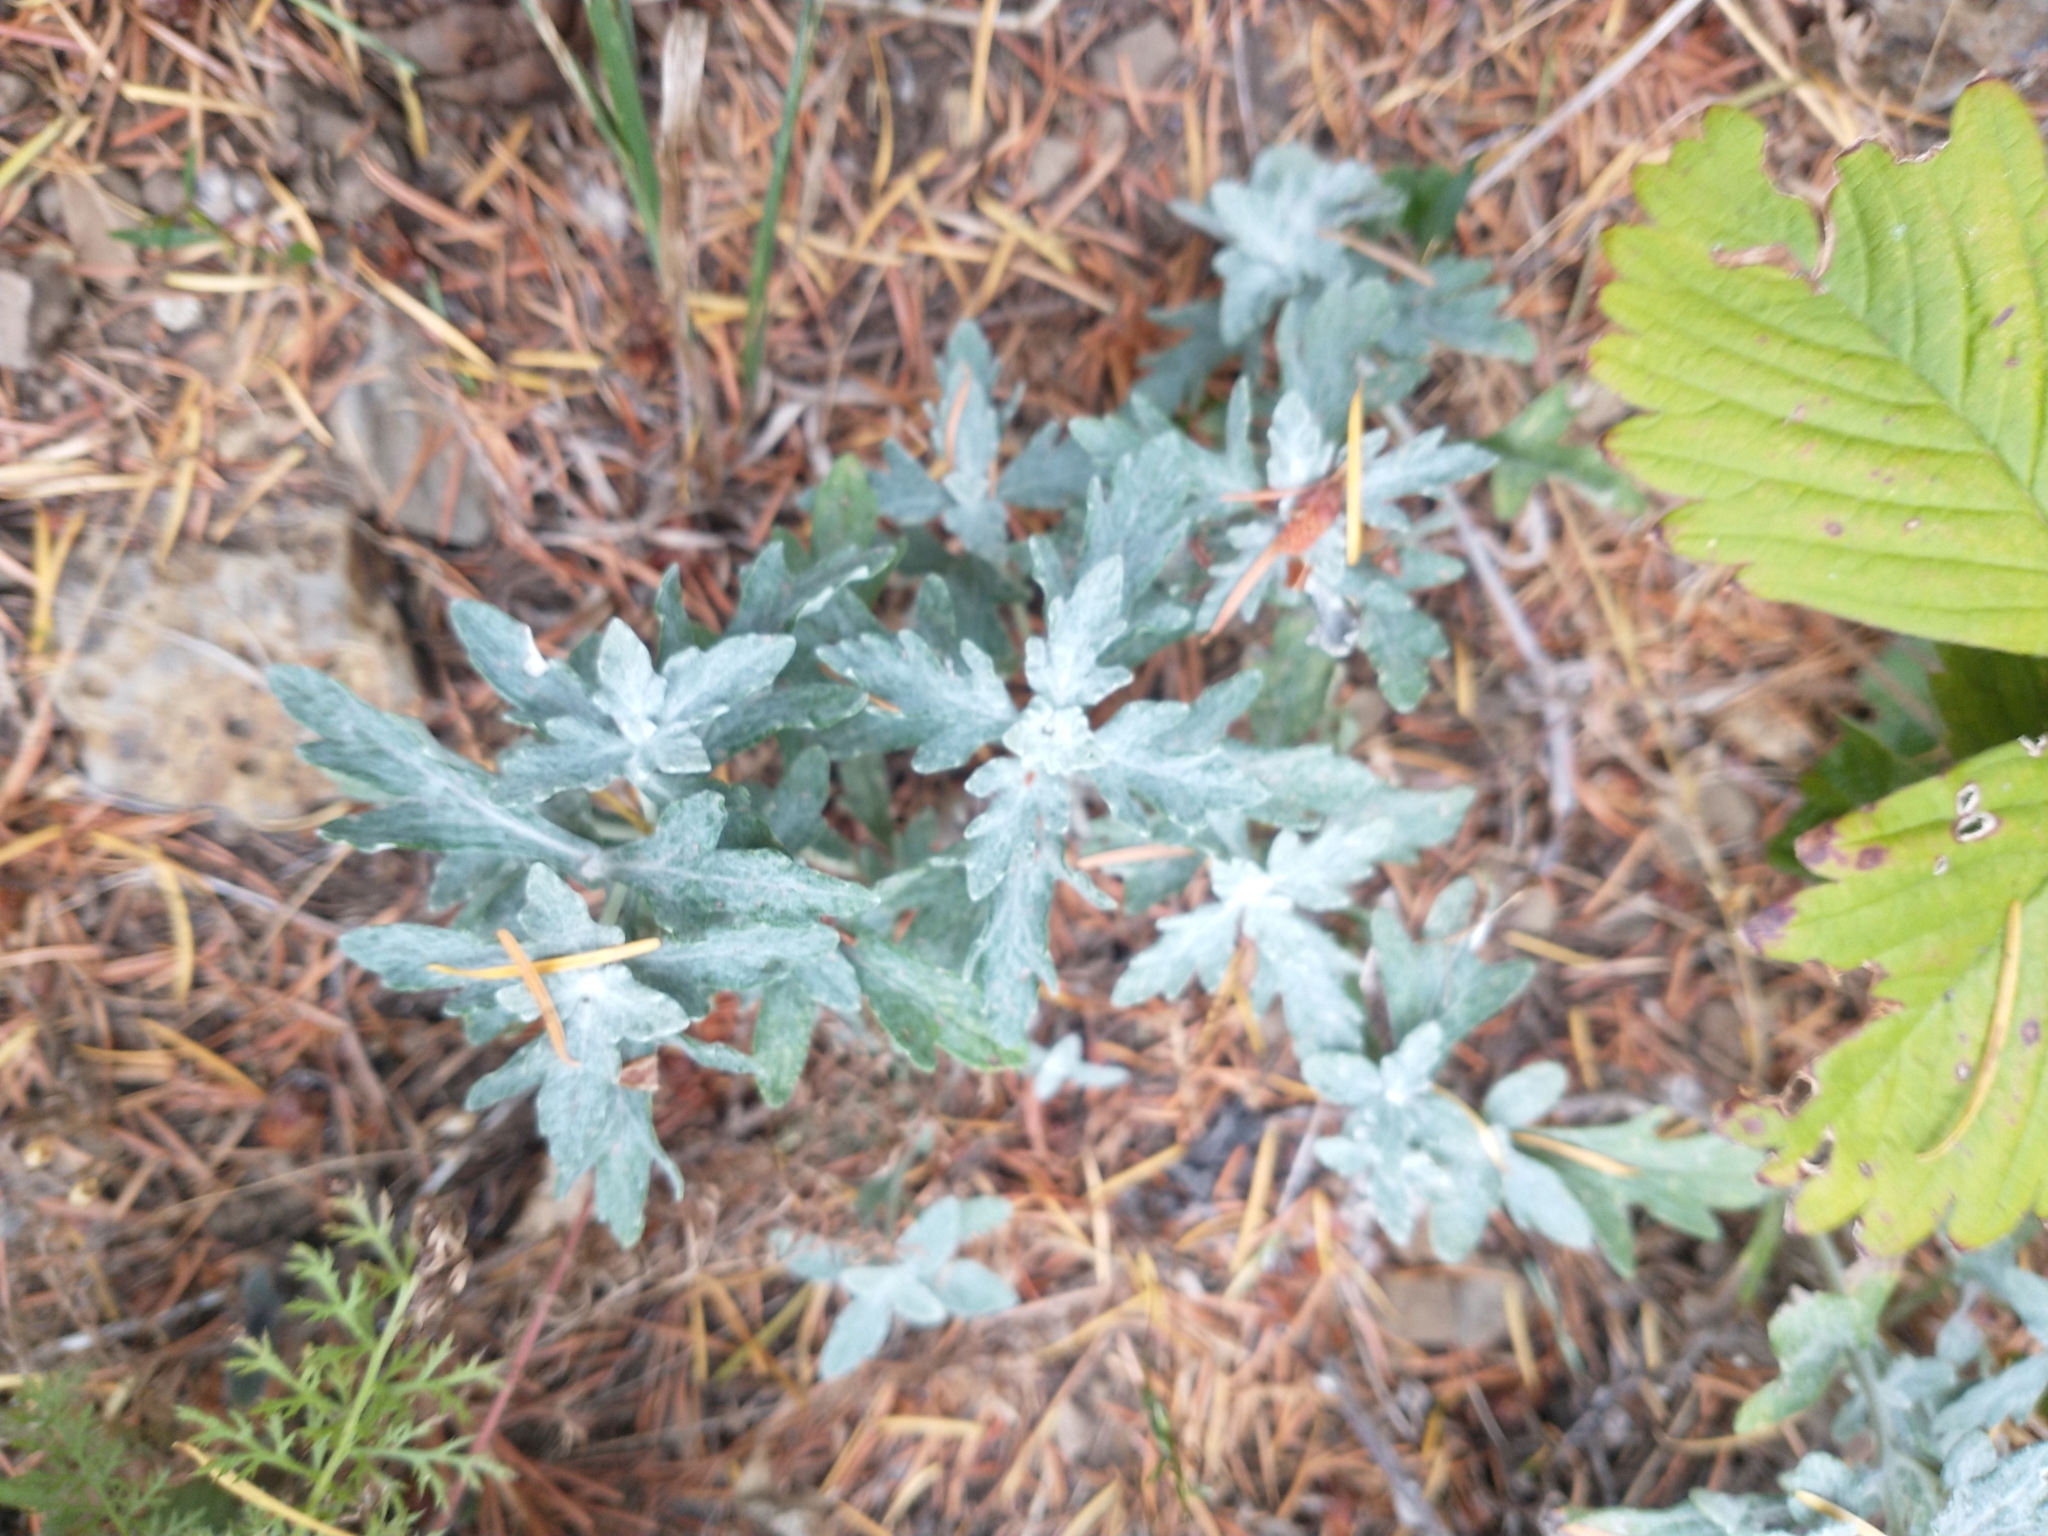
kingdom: Plantae
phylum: Tracheophyta
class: Magnoliopsida
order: Asterales
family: Asteraceae
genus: Eriophyllum
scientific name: Eriophyllum lanatum
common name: Common woolly-sunflower
